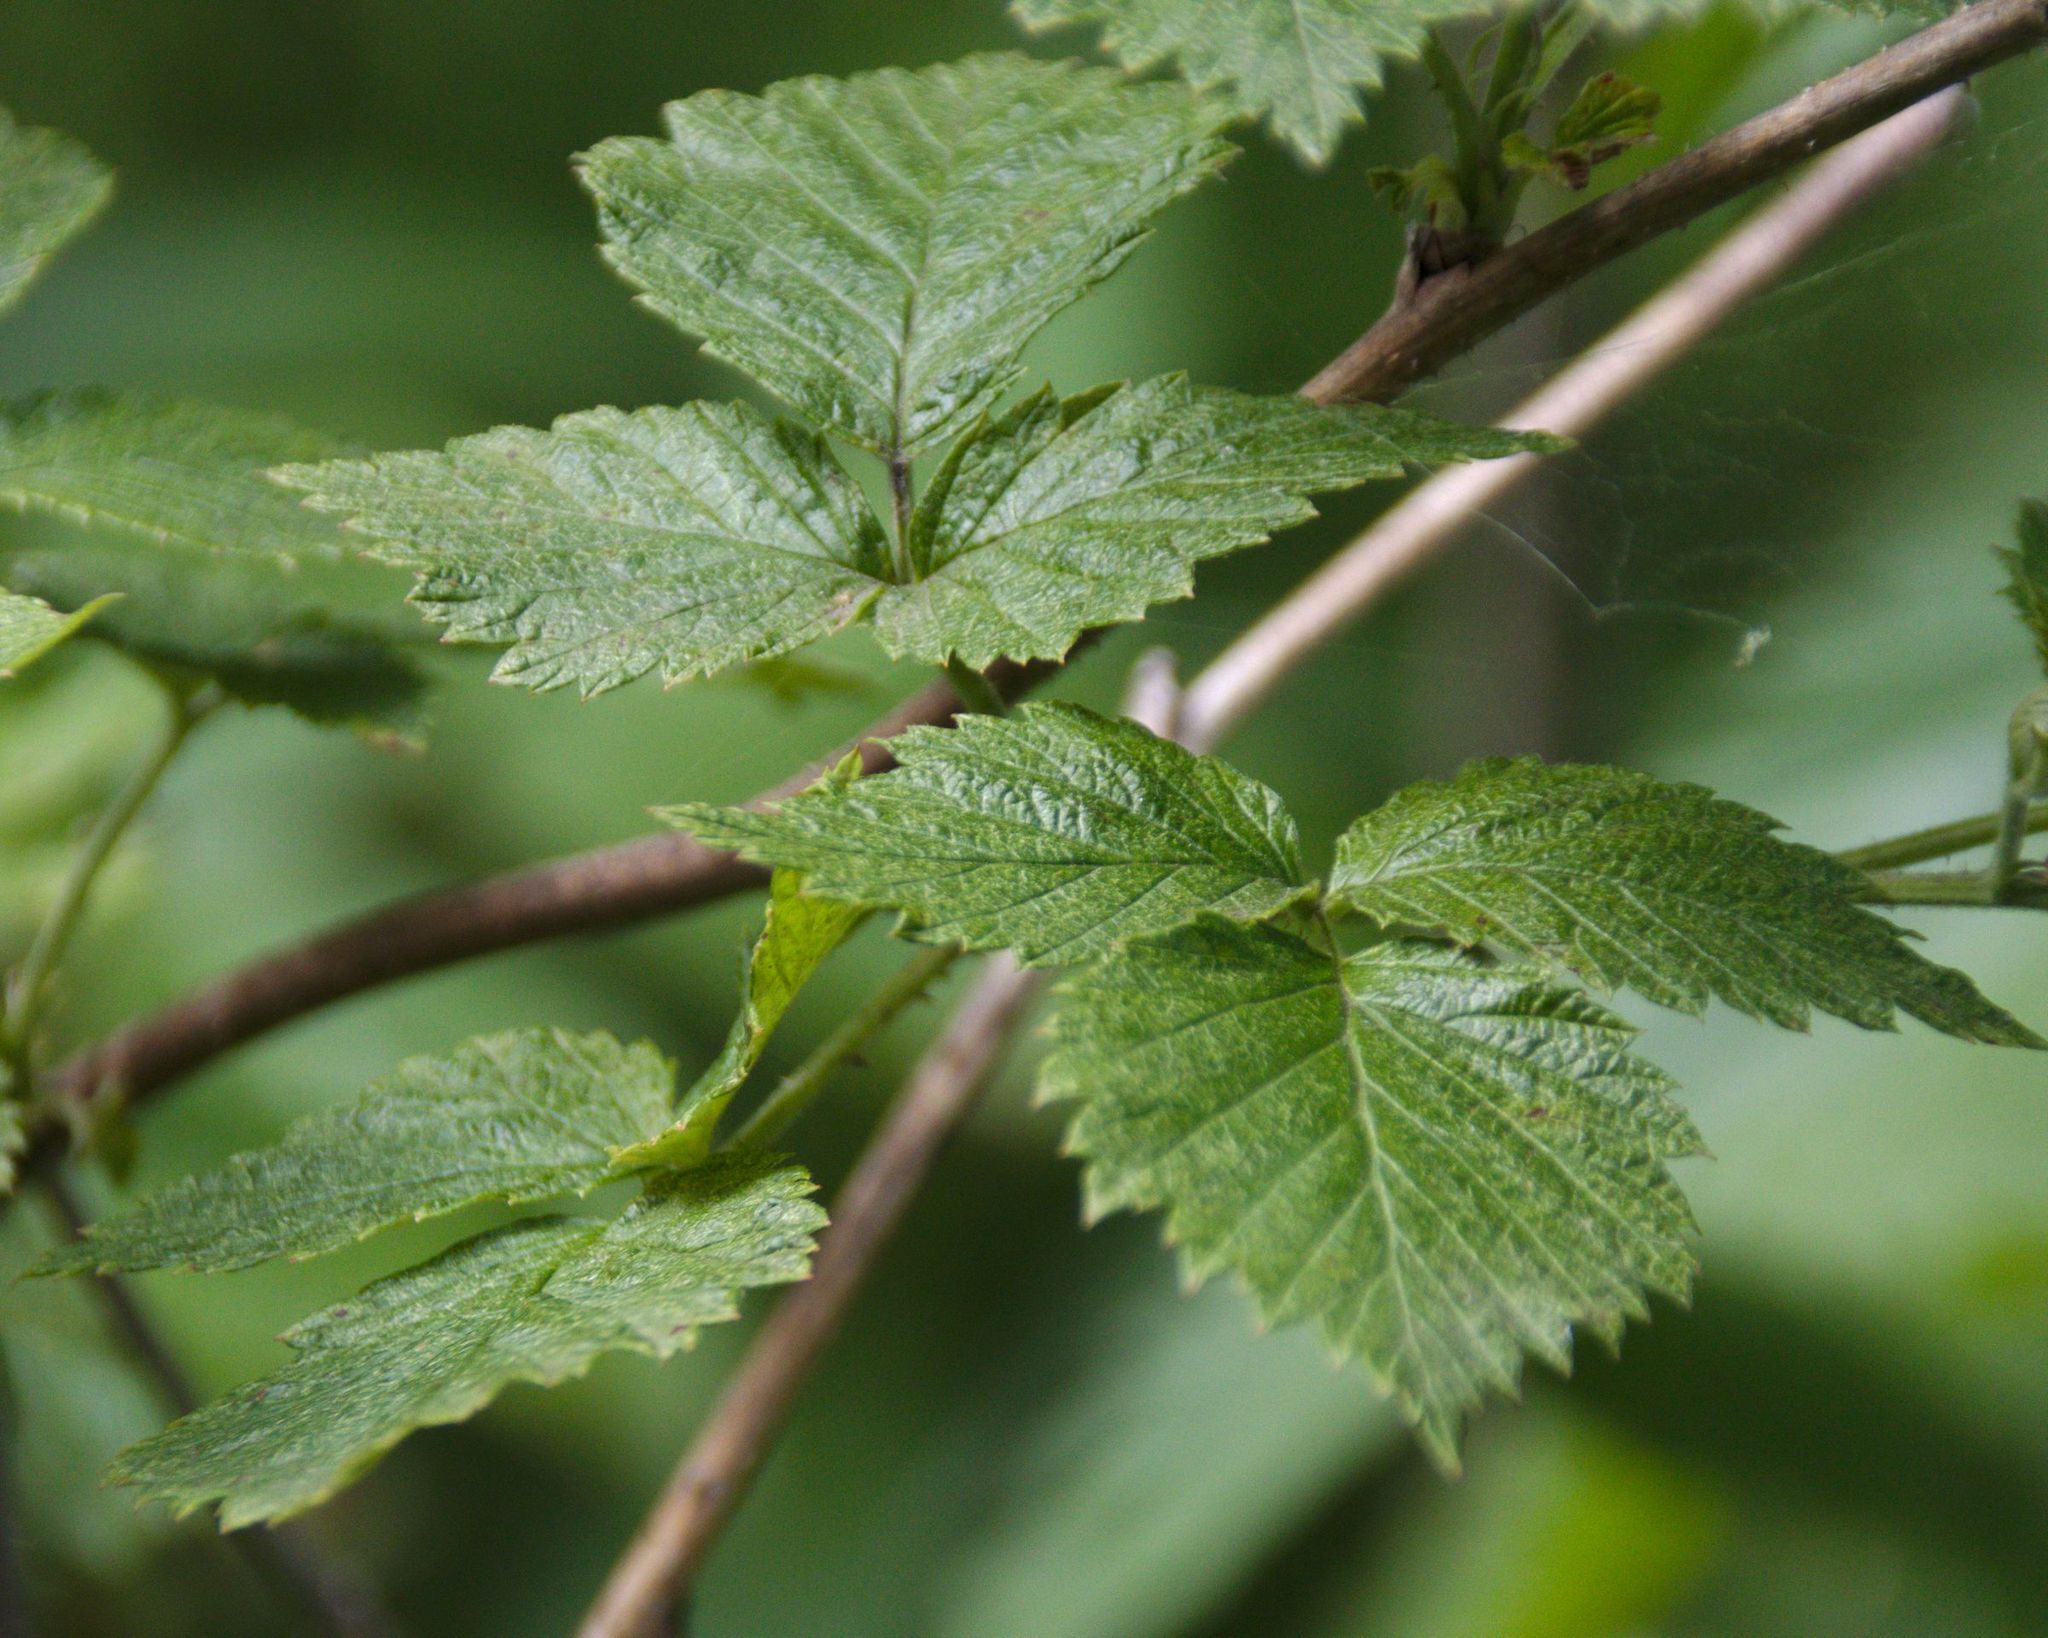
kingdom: Plantae
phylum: Tracheophyta
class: Magnoliopsida
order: Rosales
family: Rosaceae
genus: Rubus
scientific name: Rubus idaeus
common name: Raspberry
